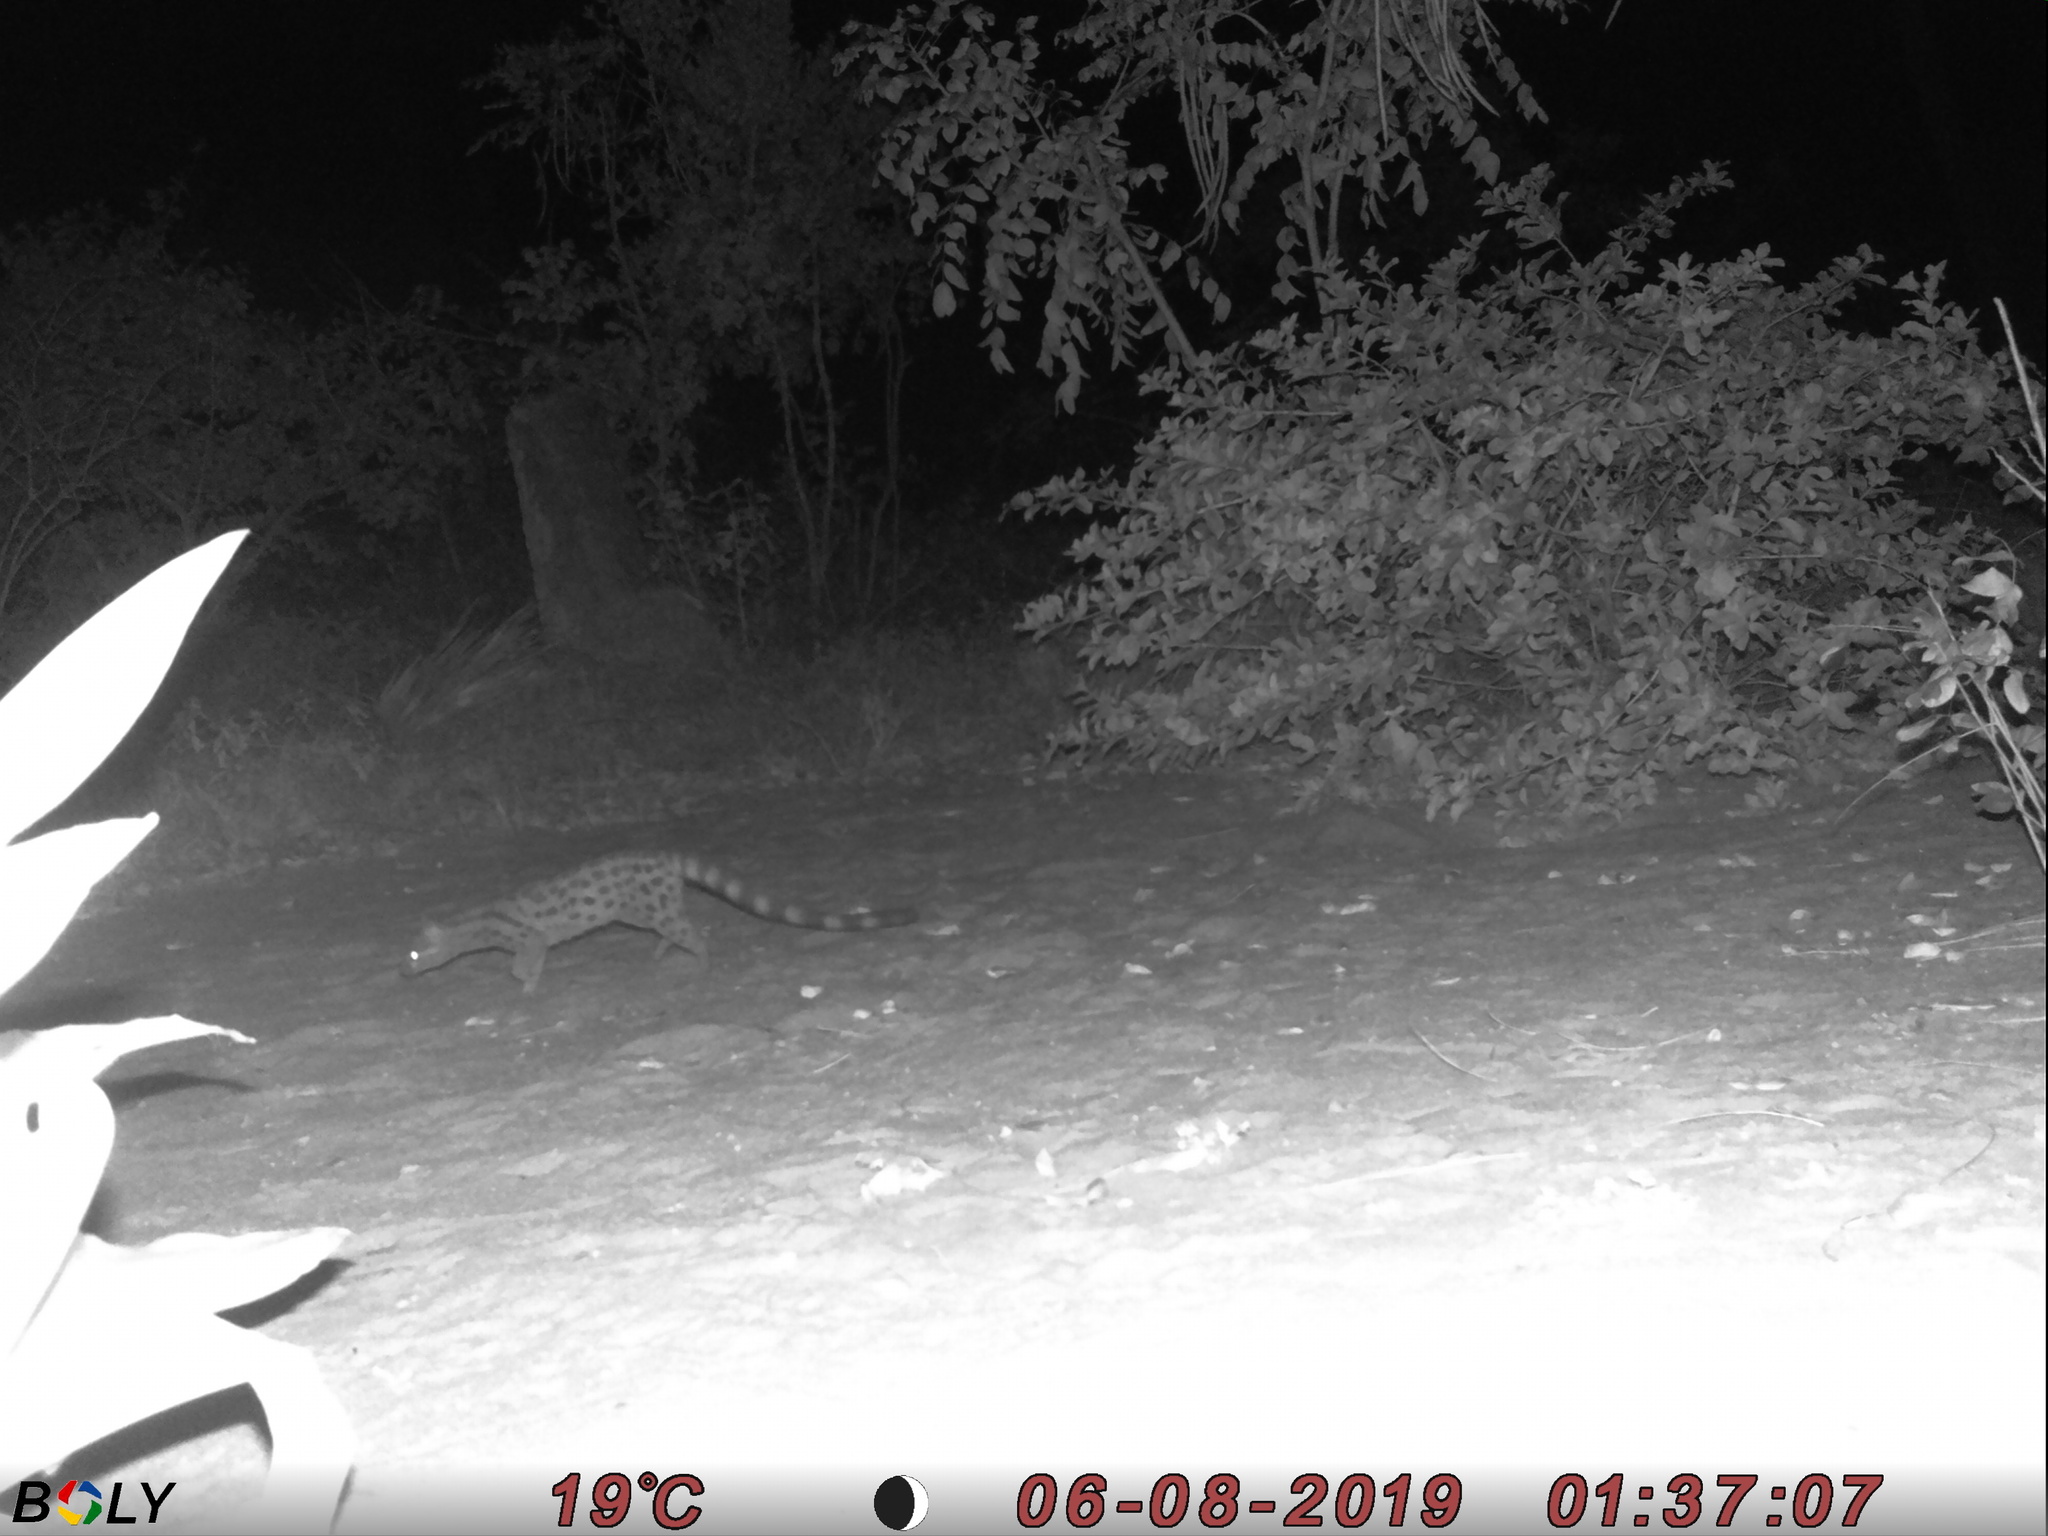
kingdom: Animalia
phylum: Chordata
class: Mammalia
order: Carnivora
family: Viverridae
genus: Genetta
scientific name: Genetta maculata
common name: Rusty-spotted genet
